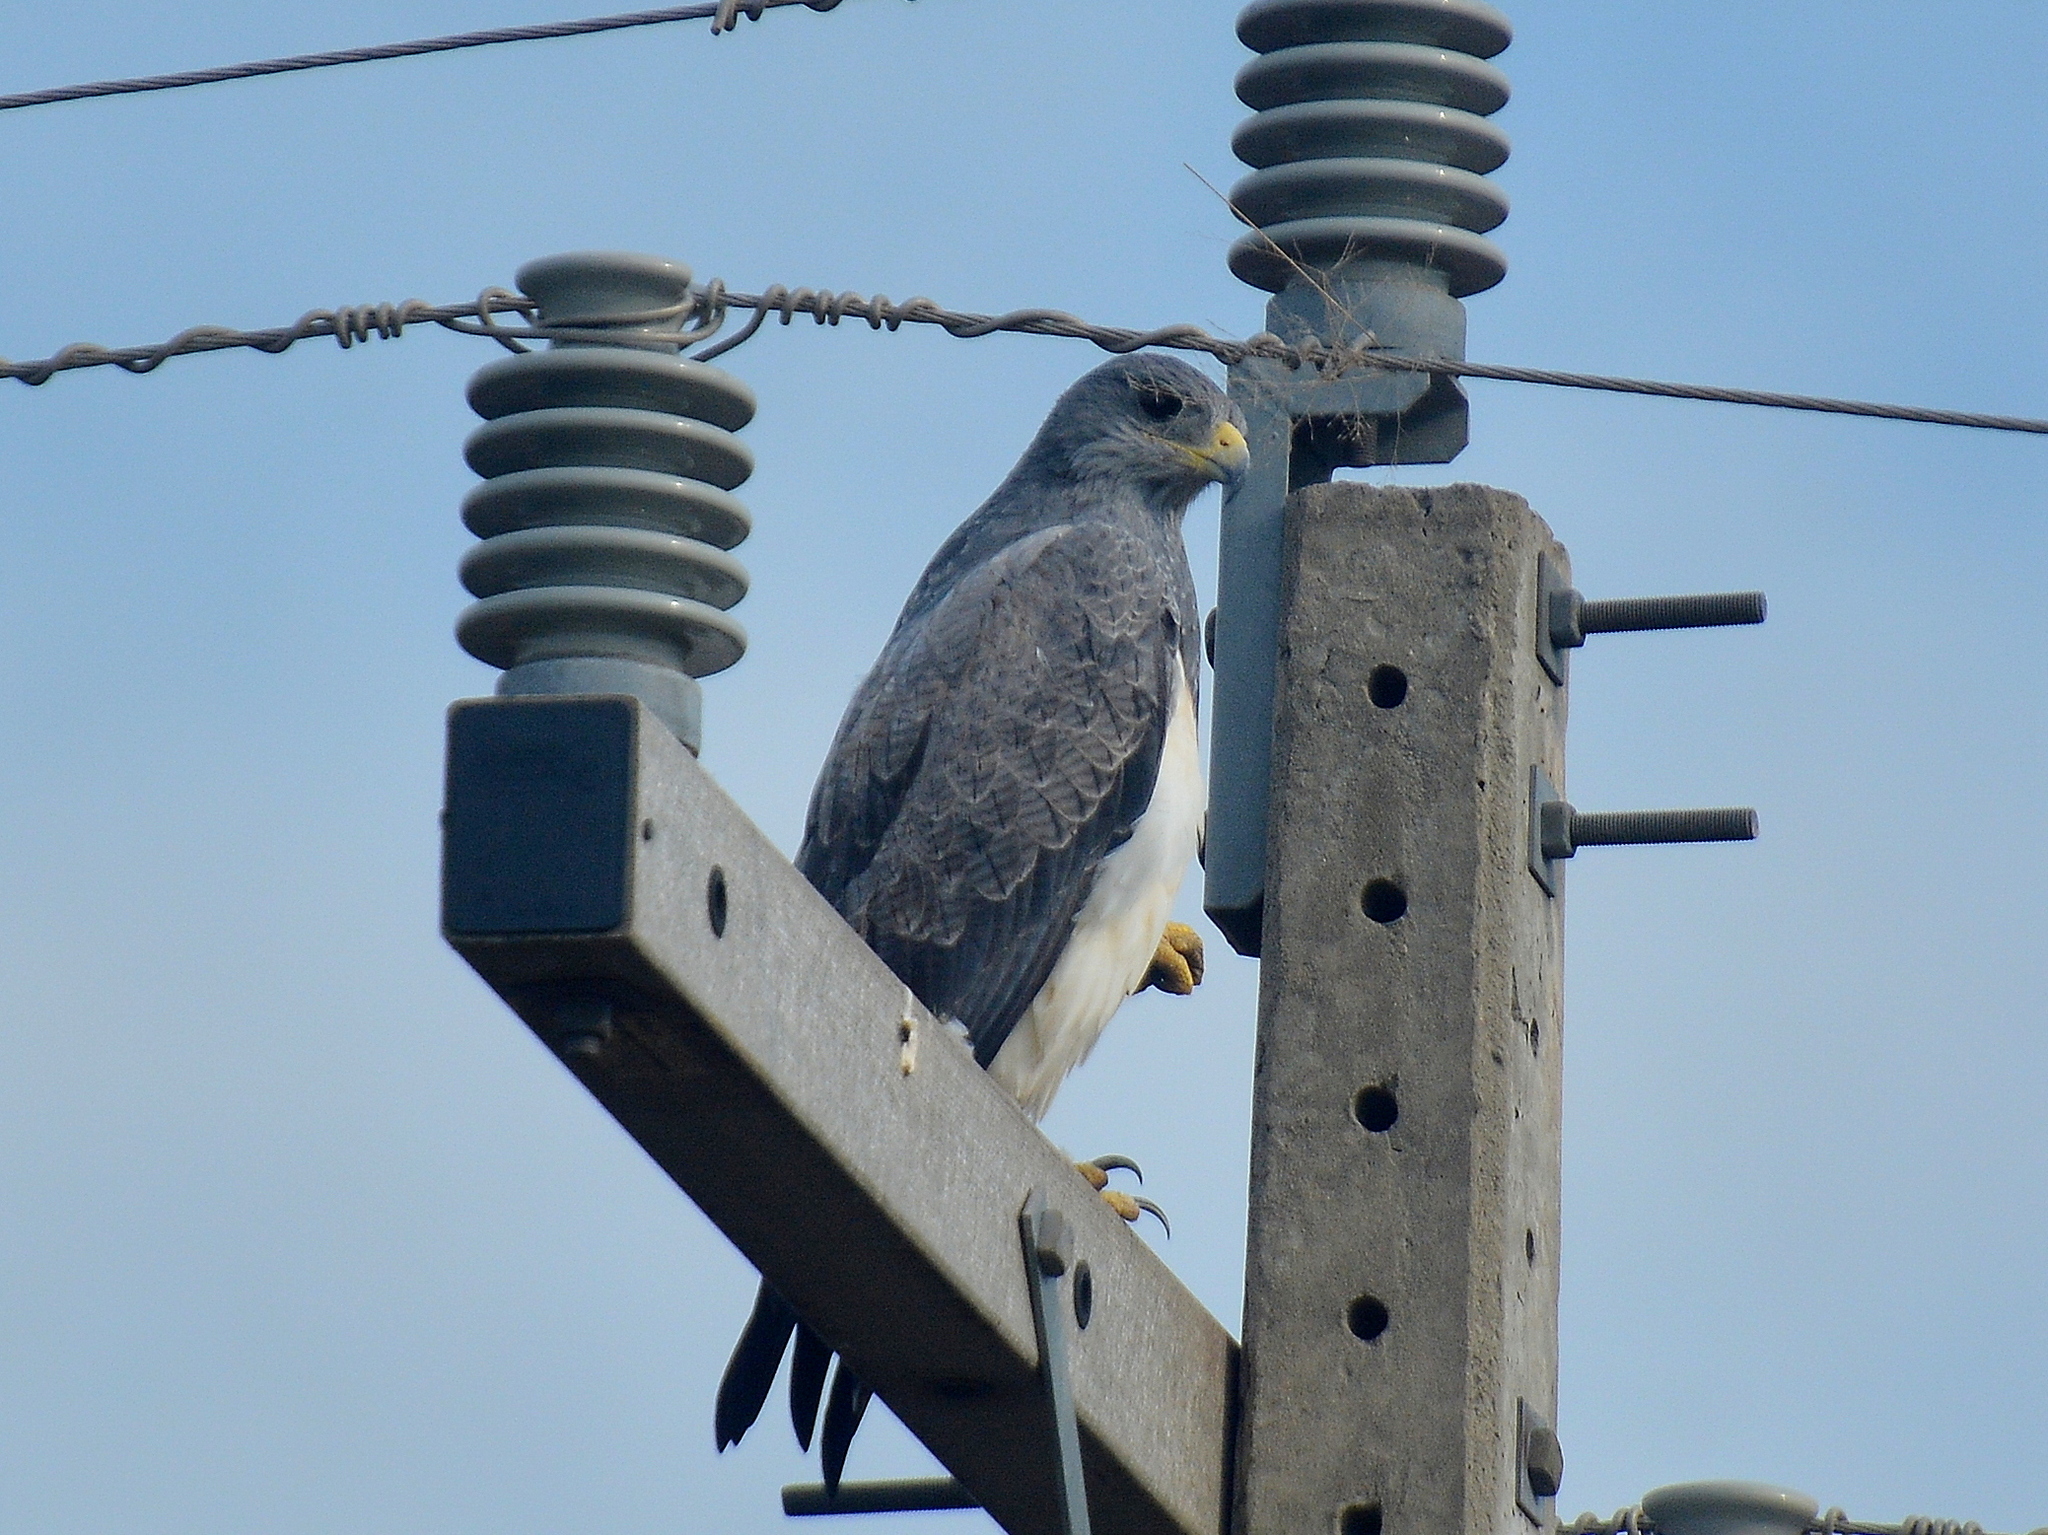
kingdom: Animalia
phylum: Chordata
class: Aves
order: Accipitriformes
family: Accipitridae
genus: Geranoaetus
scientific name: Geranoaetus melanoleucus
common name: Black-chested buzzard-eagle
